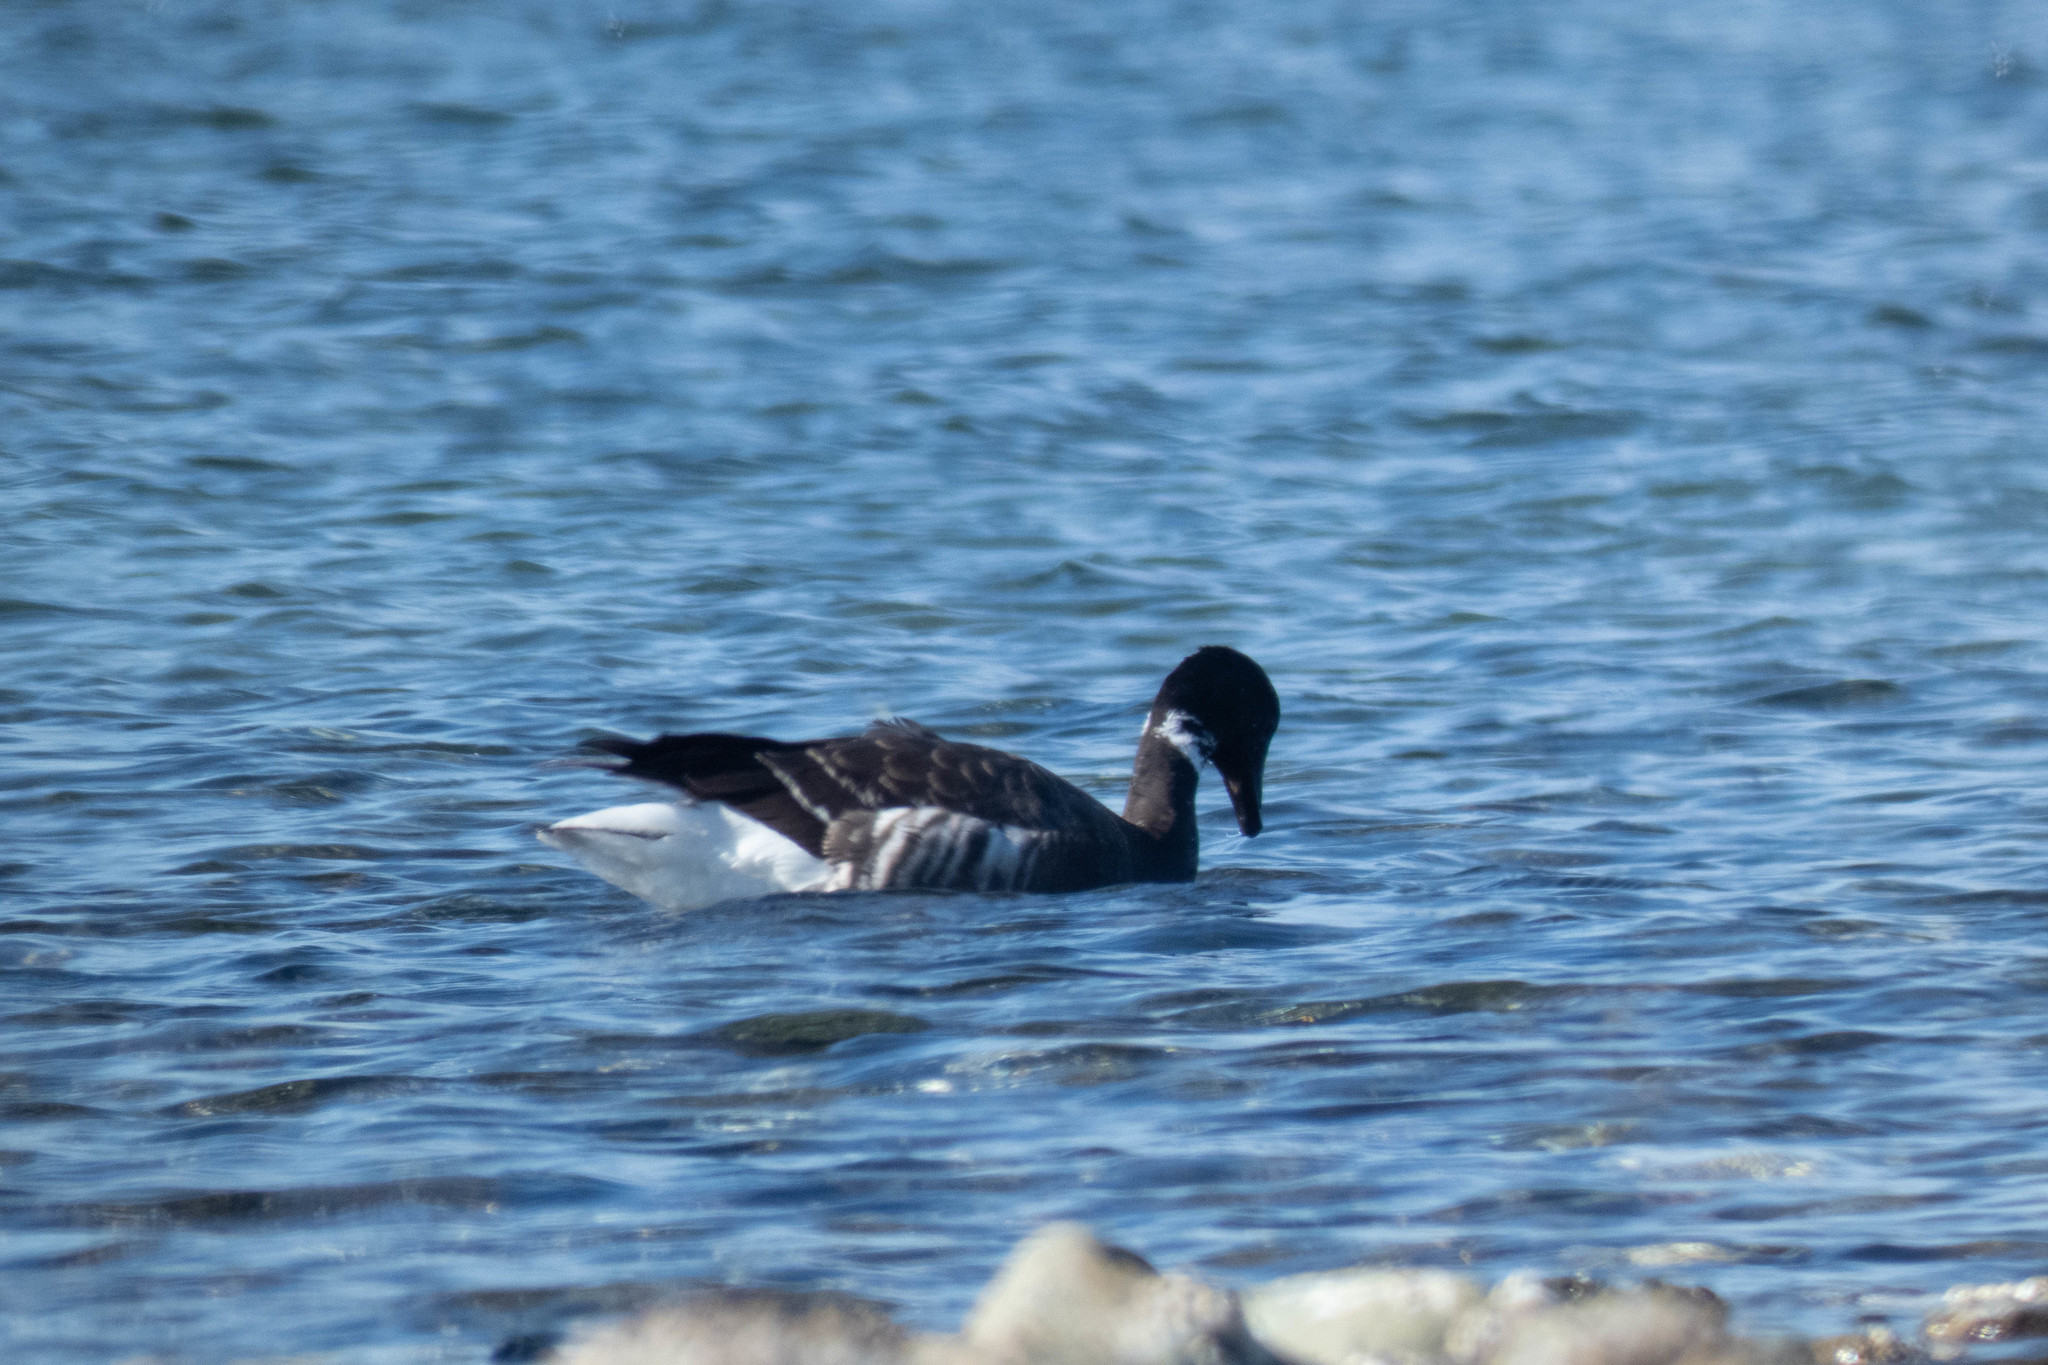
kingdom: Animalia
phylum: Chordata
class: Aves
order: Anseriformes
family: Anatidae
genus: Branta
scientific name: Branta bernicla
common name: Brant goose
